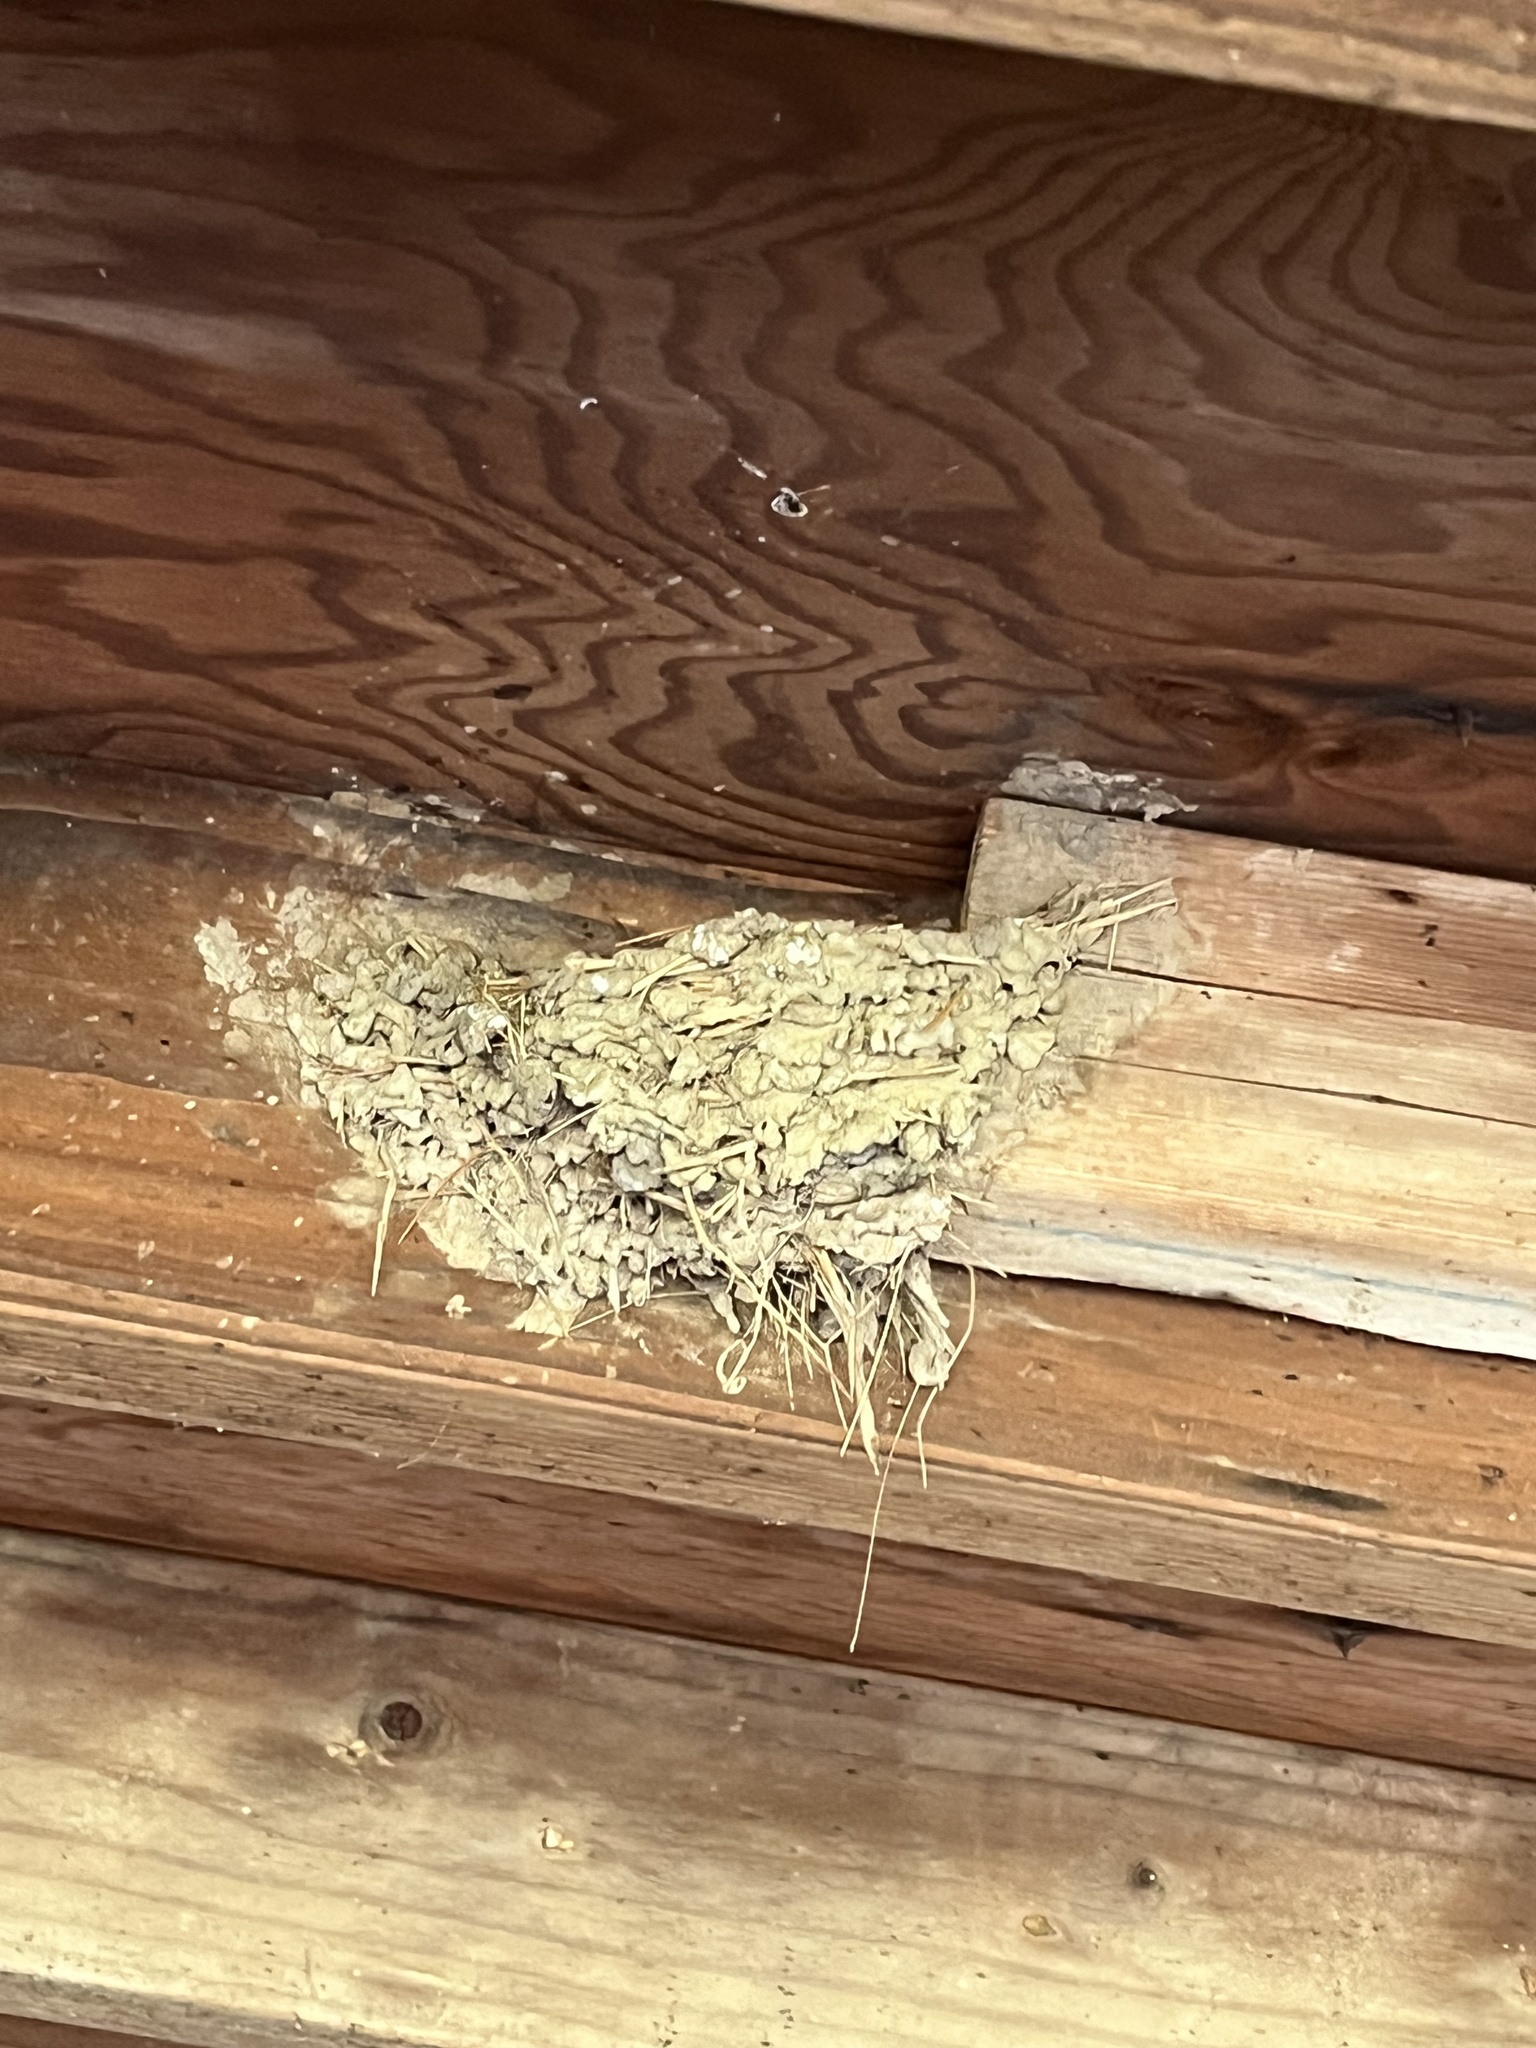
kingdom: Animalia
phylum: Chordata
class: Aves
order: Passeriformes
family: Hirundinidae
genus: Hirundo
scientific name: Hirundo rustica
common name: Barn swallow
